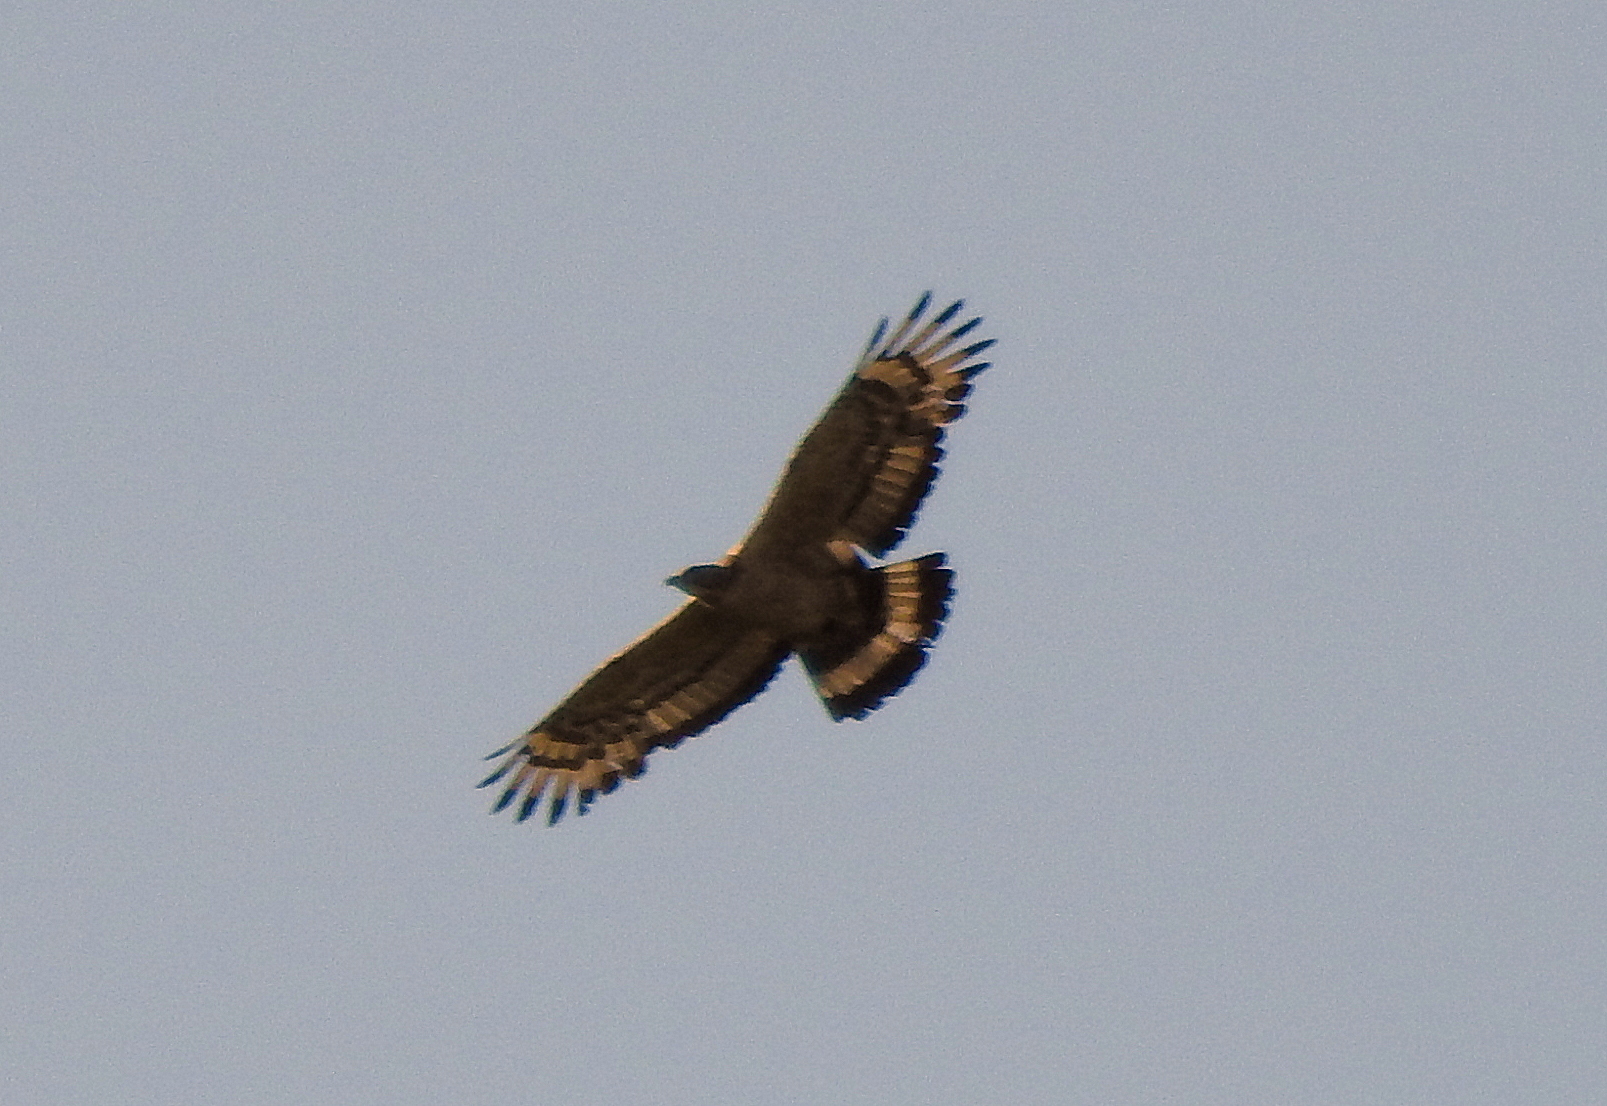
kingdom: Animalia
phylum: Chordata
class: Aves
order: Accipitriformes
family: Accipitridae
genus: Pernis
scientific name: Pernis ptilorhynchus
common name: Crested honey buzzard
